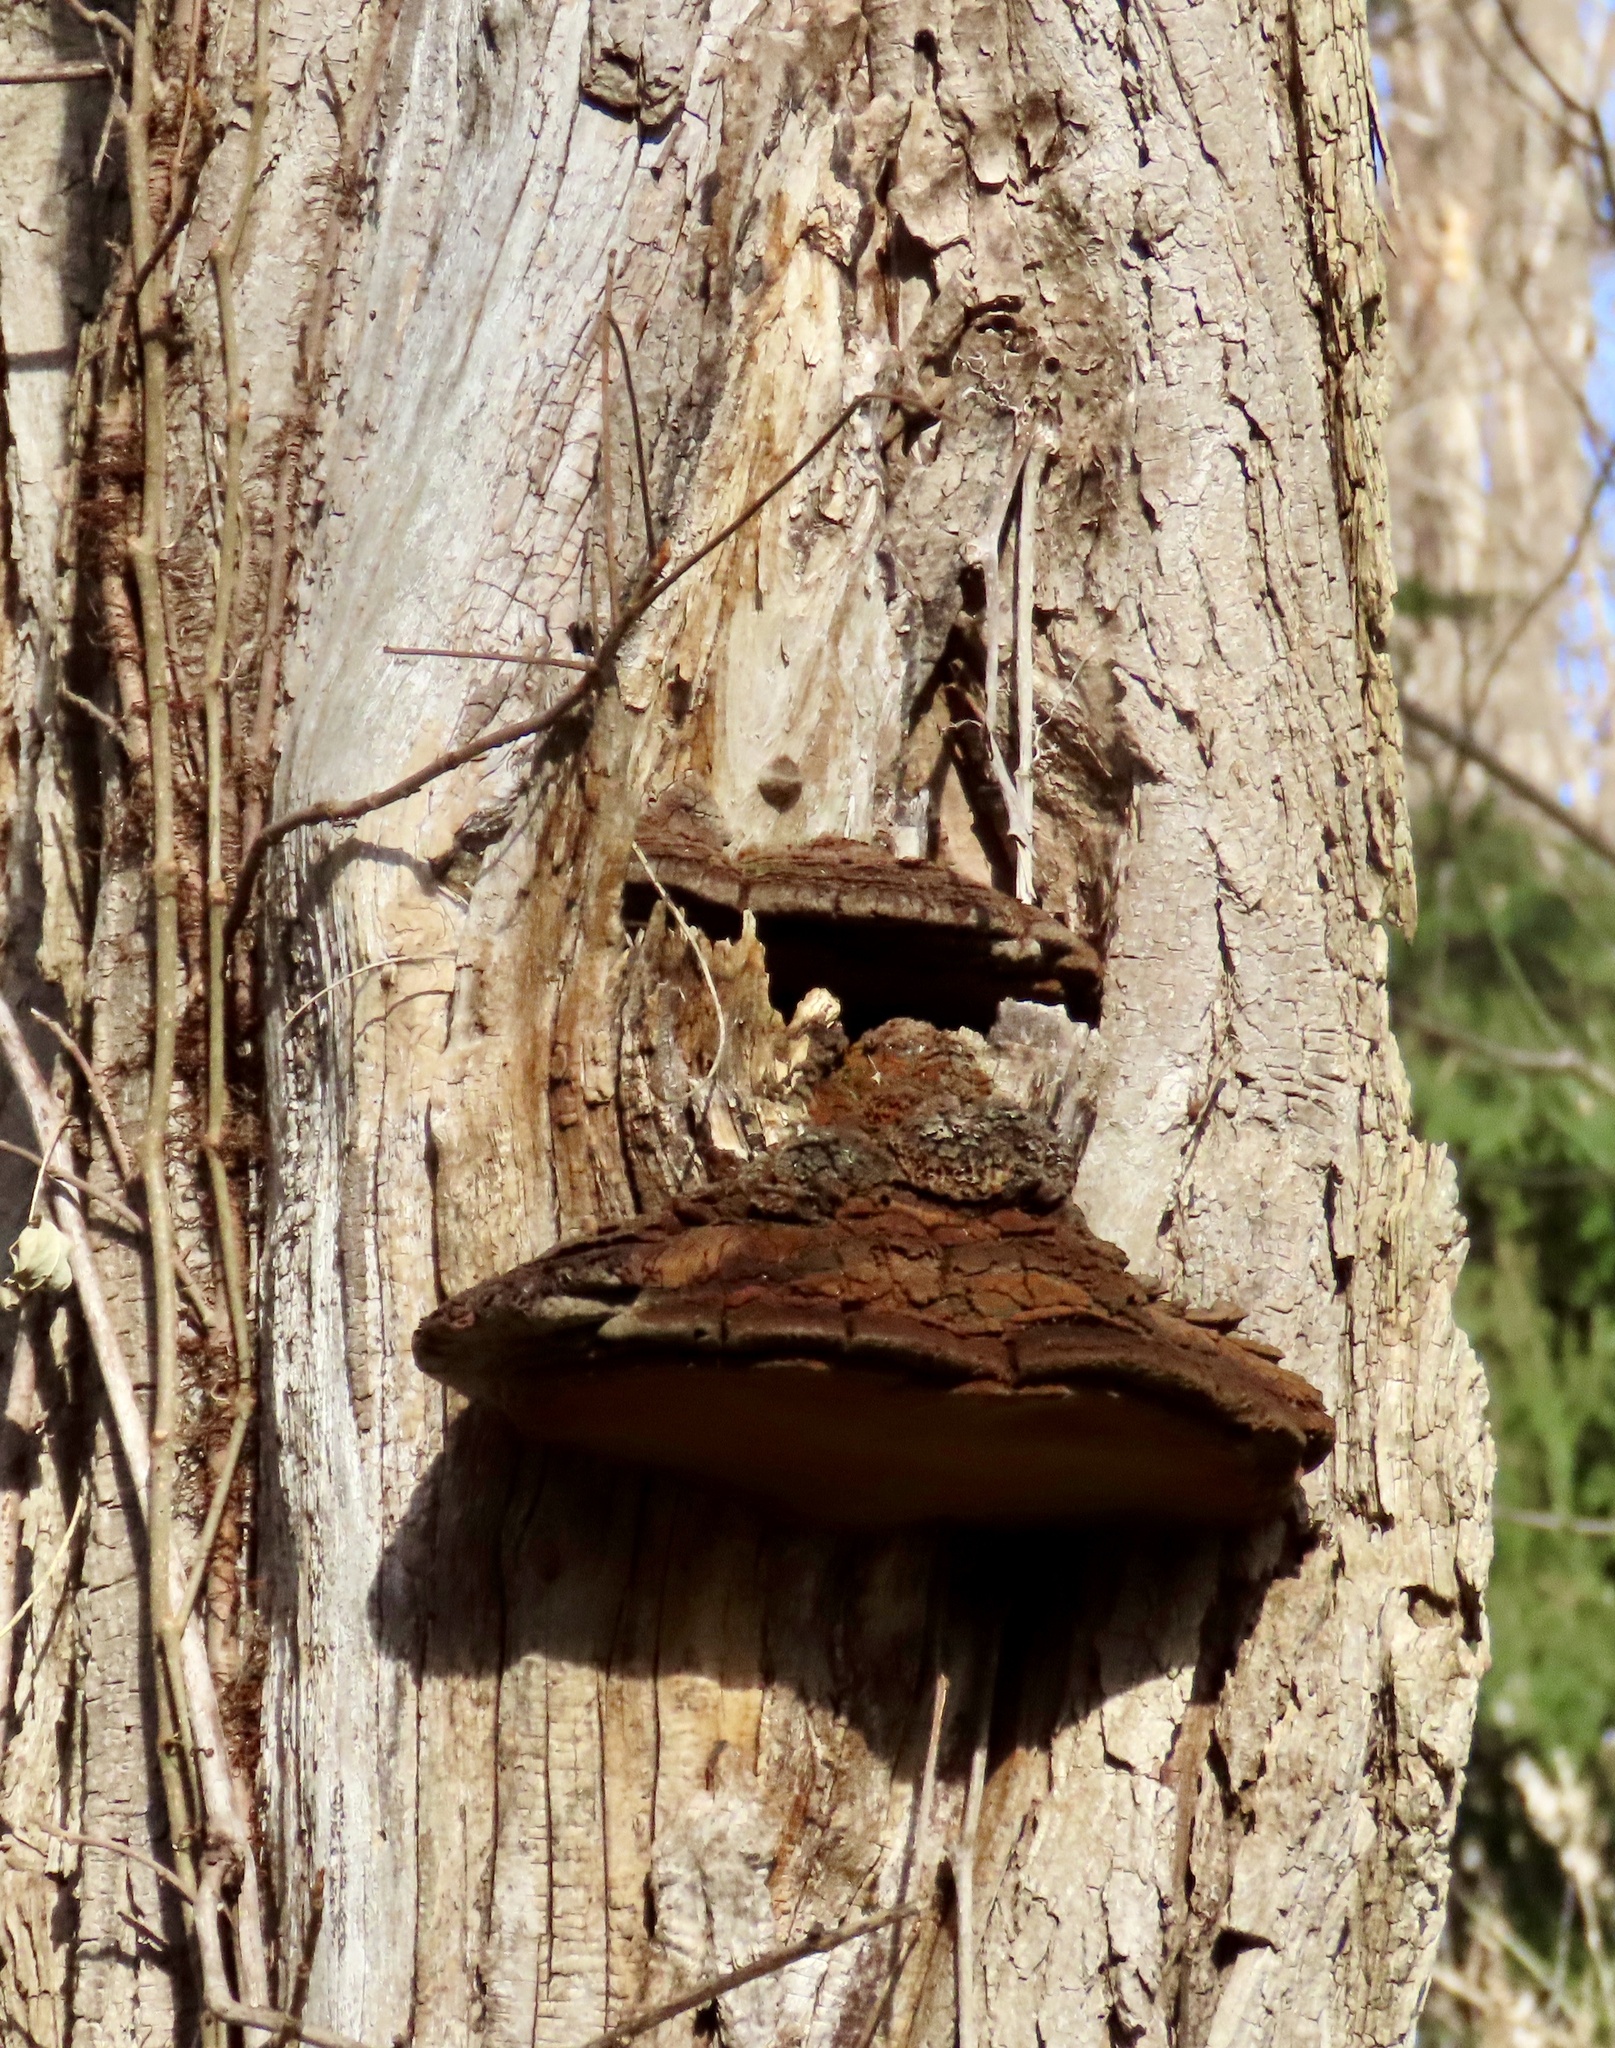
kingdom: Fungi
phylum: Basidiomycota
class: Agaricomycetes
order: Hymenochaetales
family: Hymenochaetaceae
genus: Phellinus
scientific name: Phellinus robiniae
